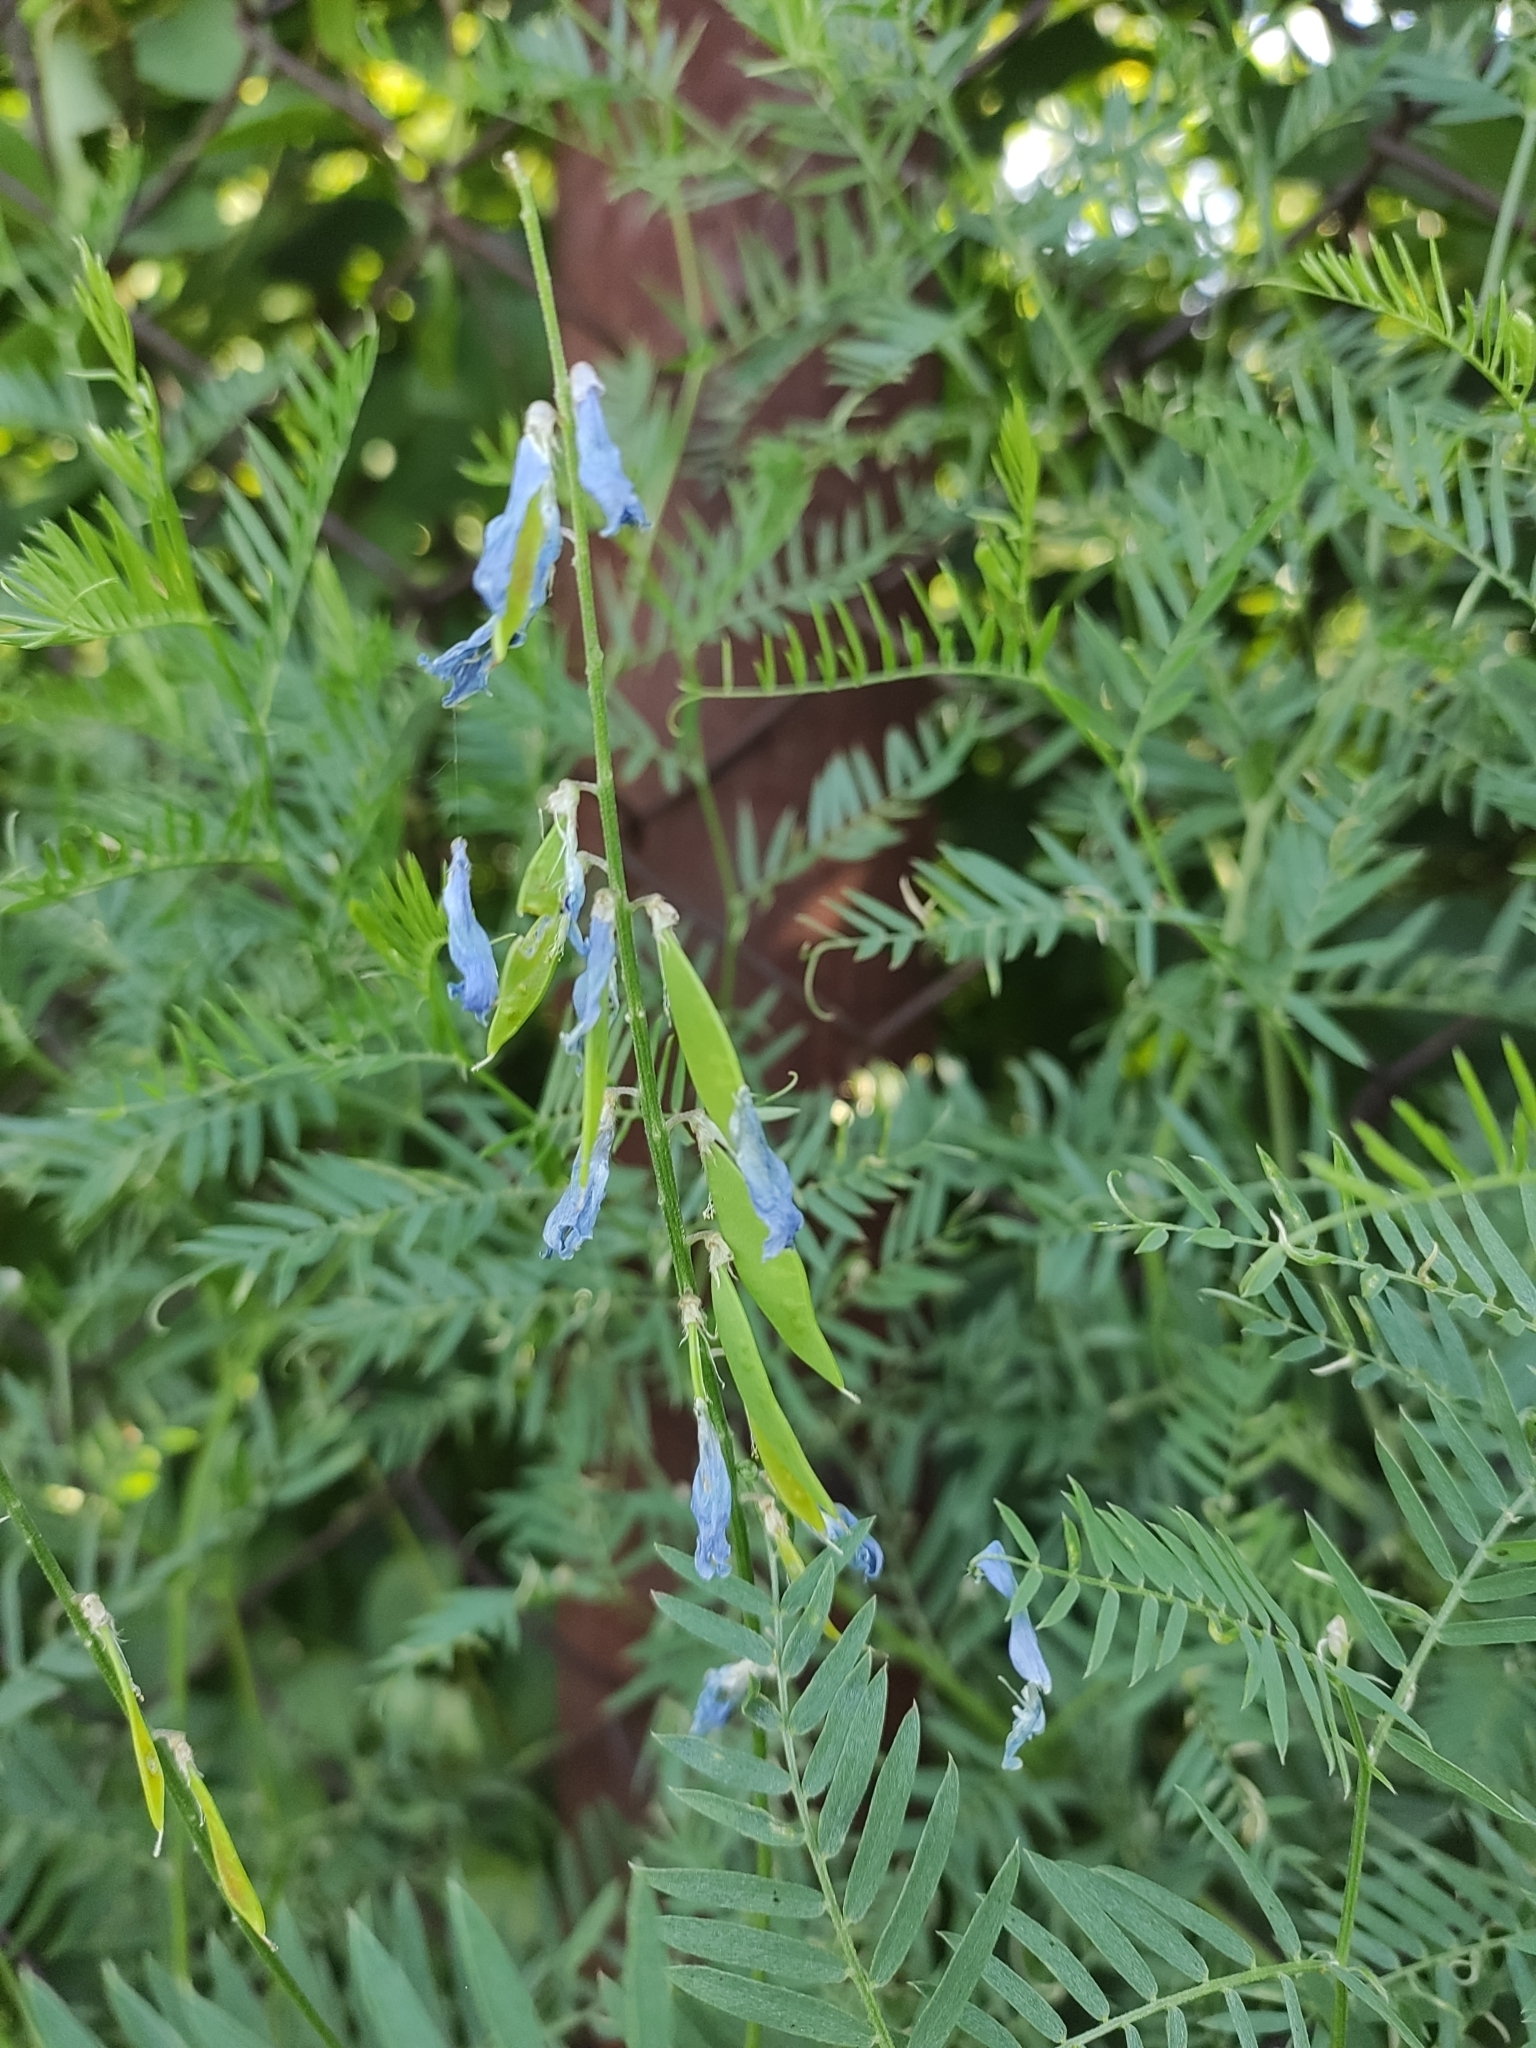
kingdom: Plantae
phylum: Tracheophyta
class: Magnoliopsida
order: Fabales
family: Fabaceae
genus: Vicia
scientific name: Vicia tenuifolia
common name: Fine-leaved vetch
